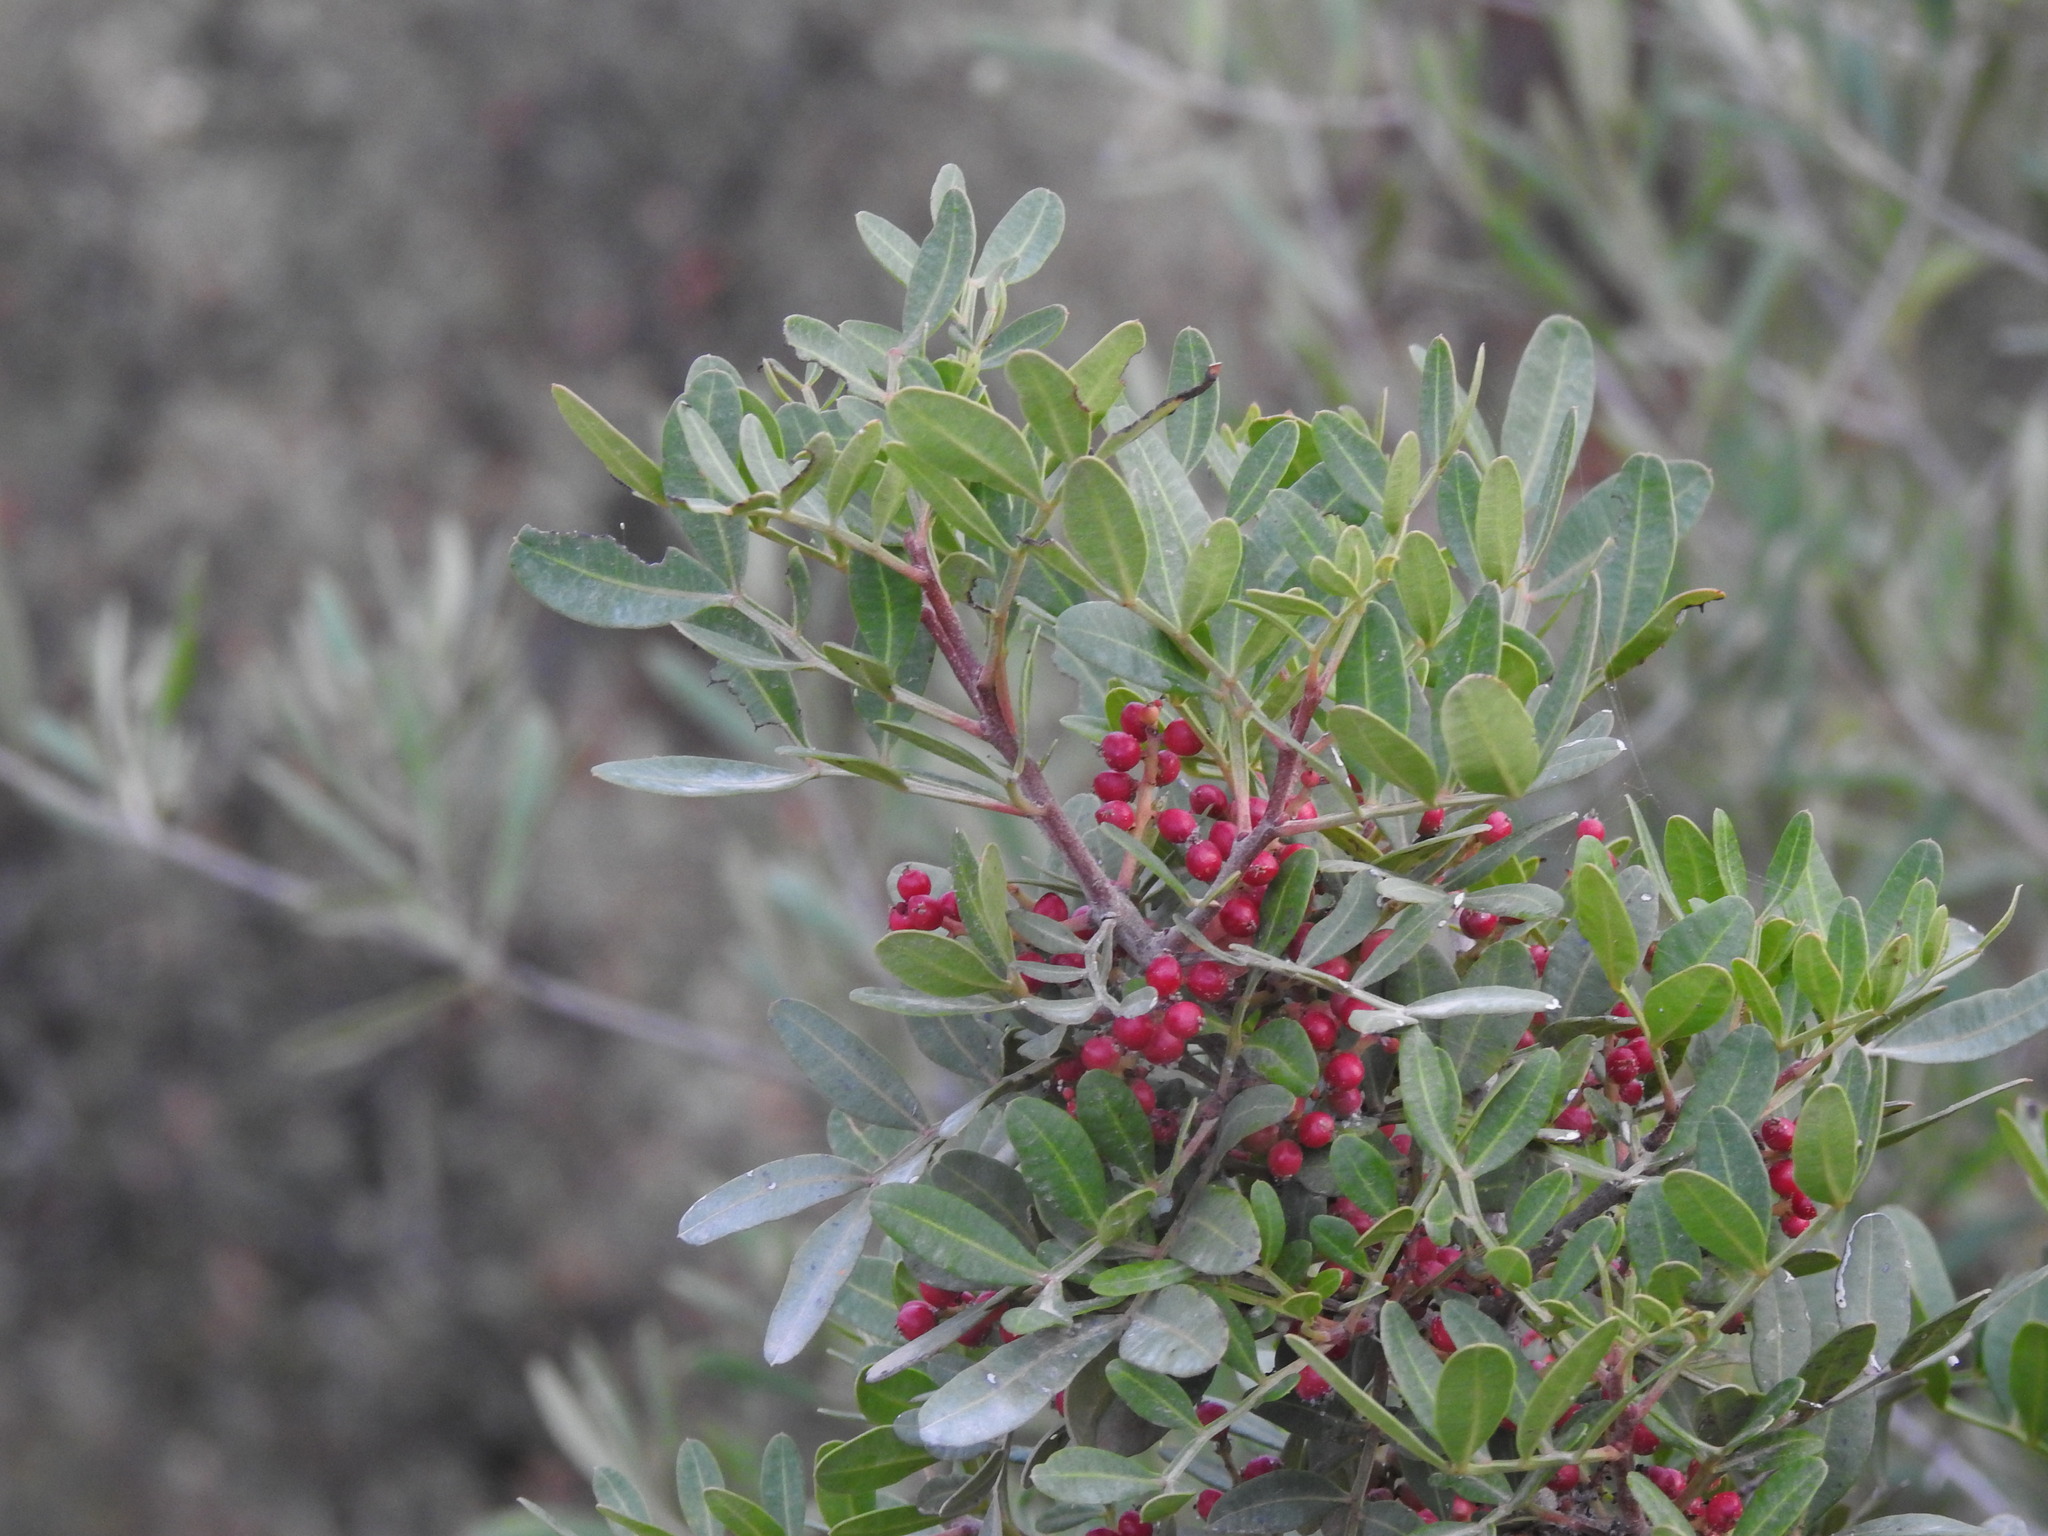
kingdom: Plantae
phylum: Tracheophyta
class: Magnoliopsida
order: Sapindales
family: Anacardiaceae
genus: Pistacia
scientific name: Pistacia lentiscus
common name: Lentisk
